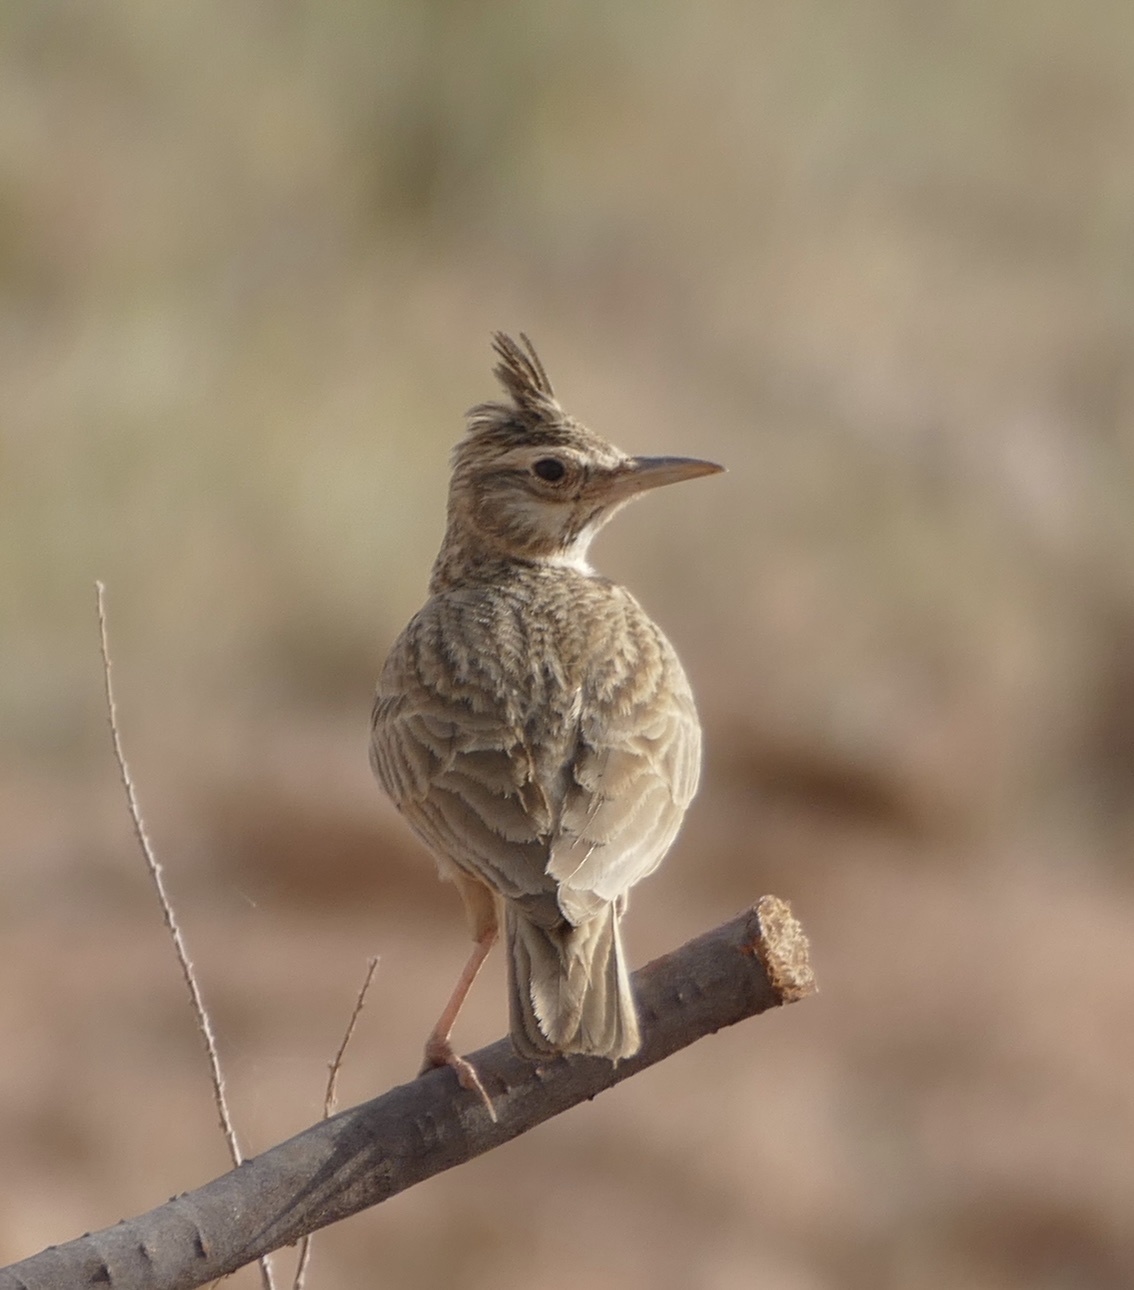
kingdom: Animalia
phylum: Chordata
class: Aves
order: Passeriformes
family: Alaudidae
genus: Galerida
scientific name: Galerida cristata
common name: Crested lark
